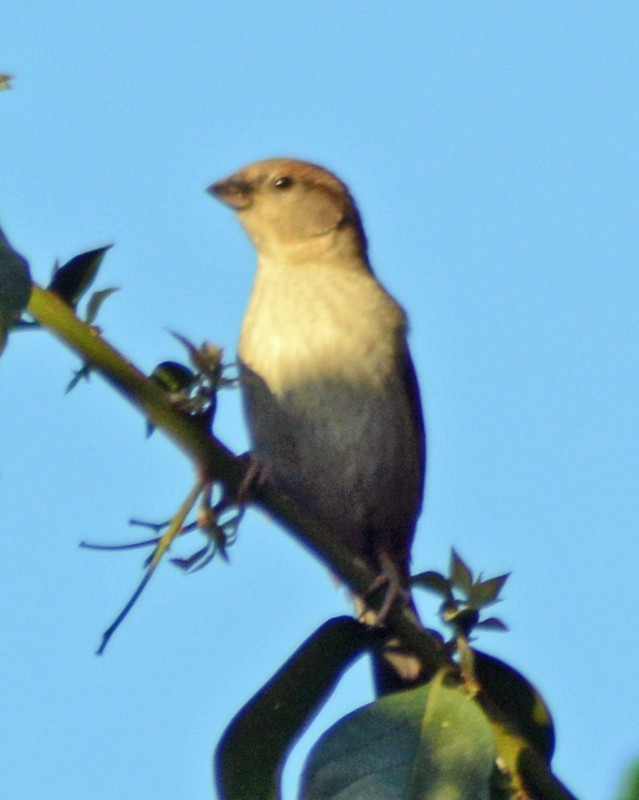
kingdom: Animalia
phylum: Chordata
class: Aves
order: Passeriformes
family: Passeridae
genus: Passer
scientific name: Passer domesticus
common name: House sparrow
